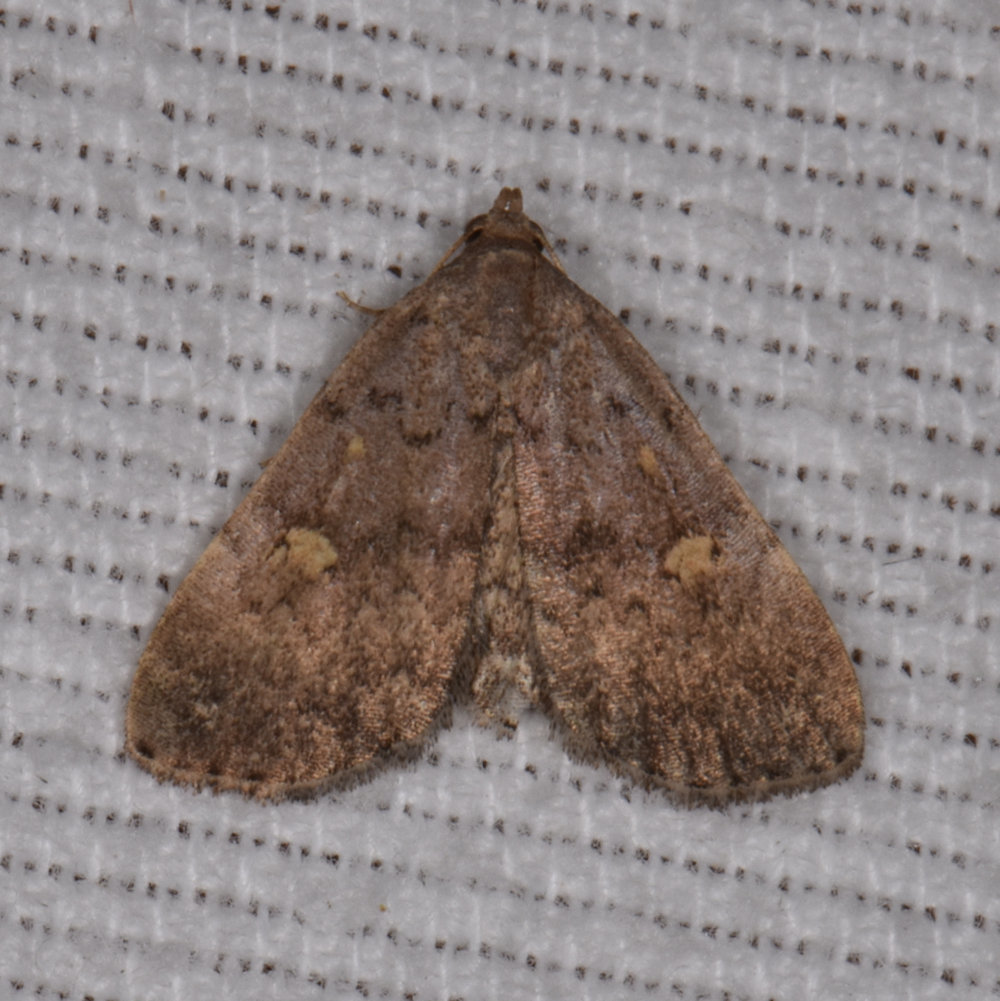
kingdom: Animalia
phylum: Arthropoda
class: Insecta
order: Lepidoptera
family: Erebidae
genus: Idia
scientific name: Idia aemula
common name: Common idia moth
